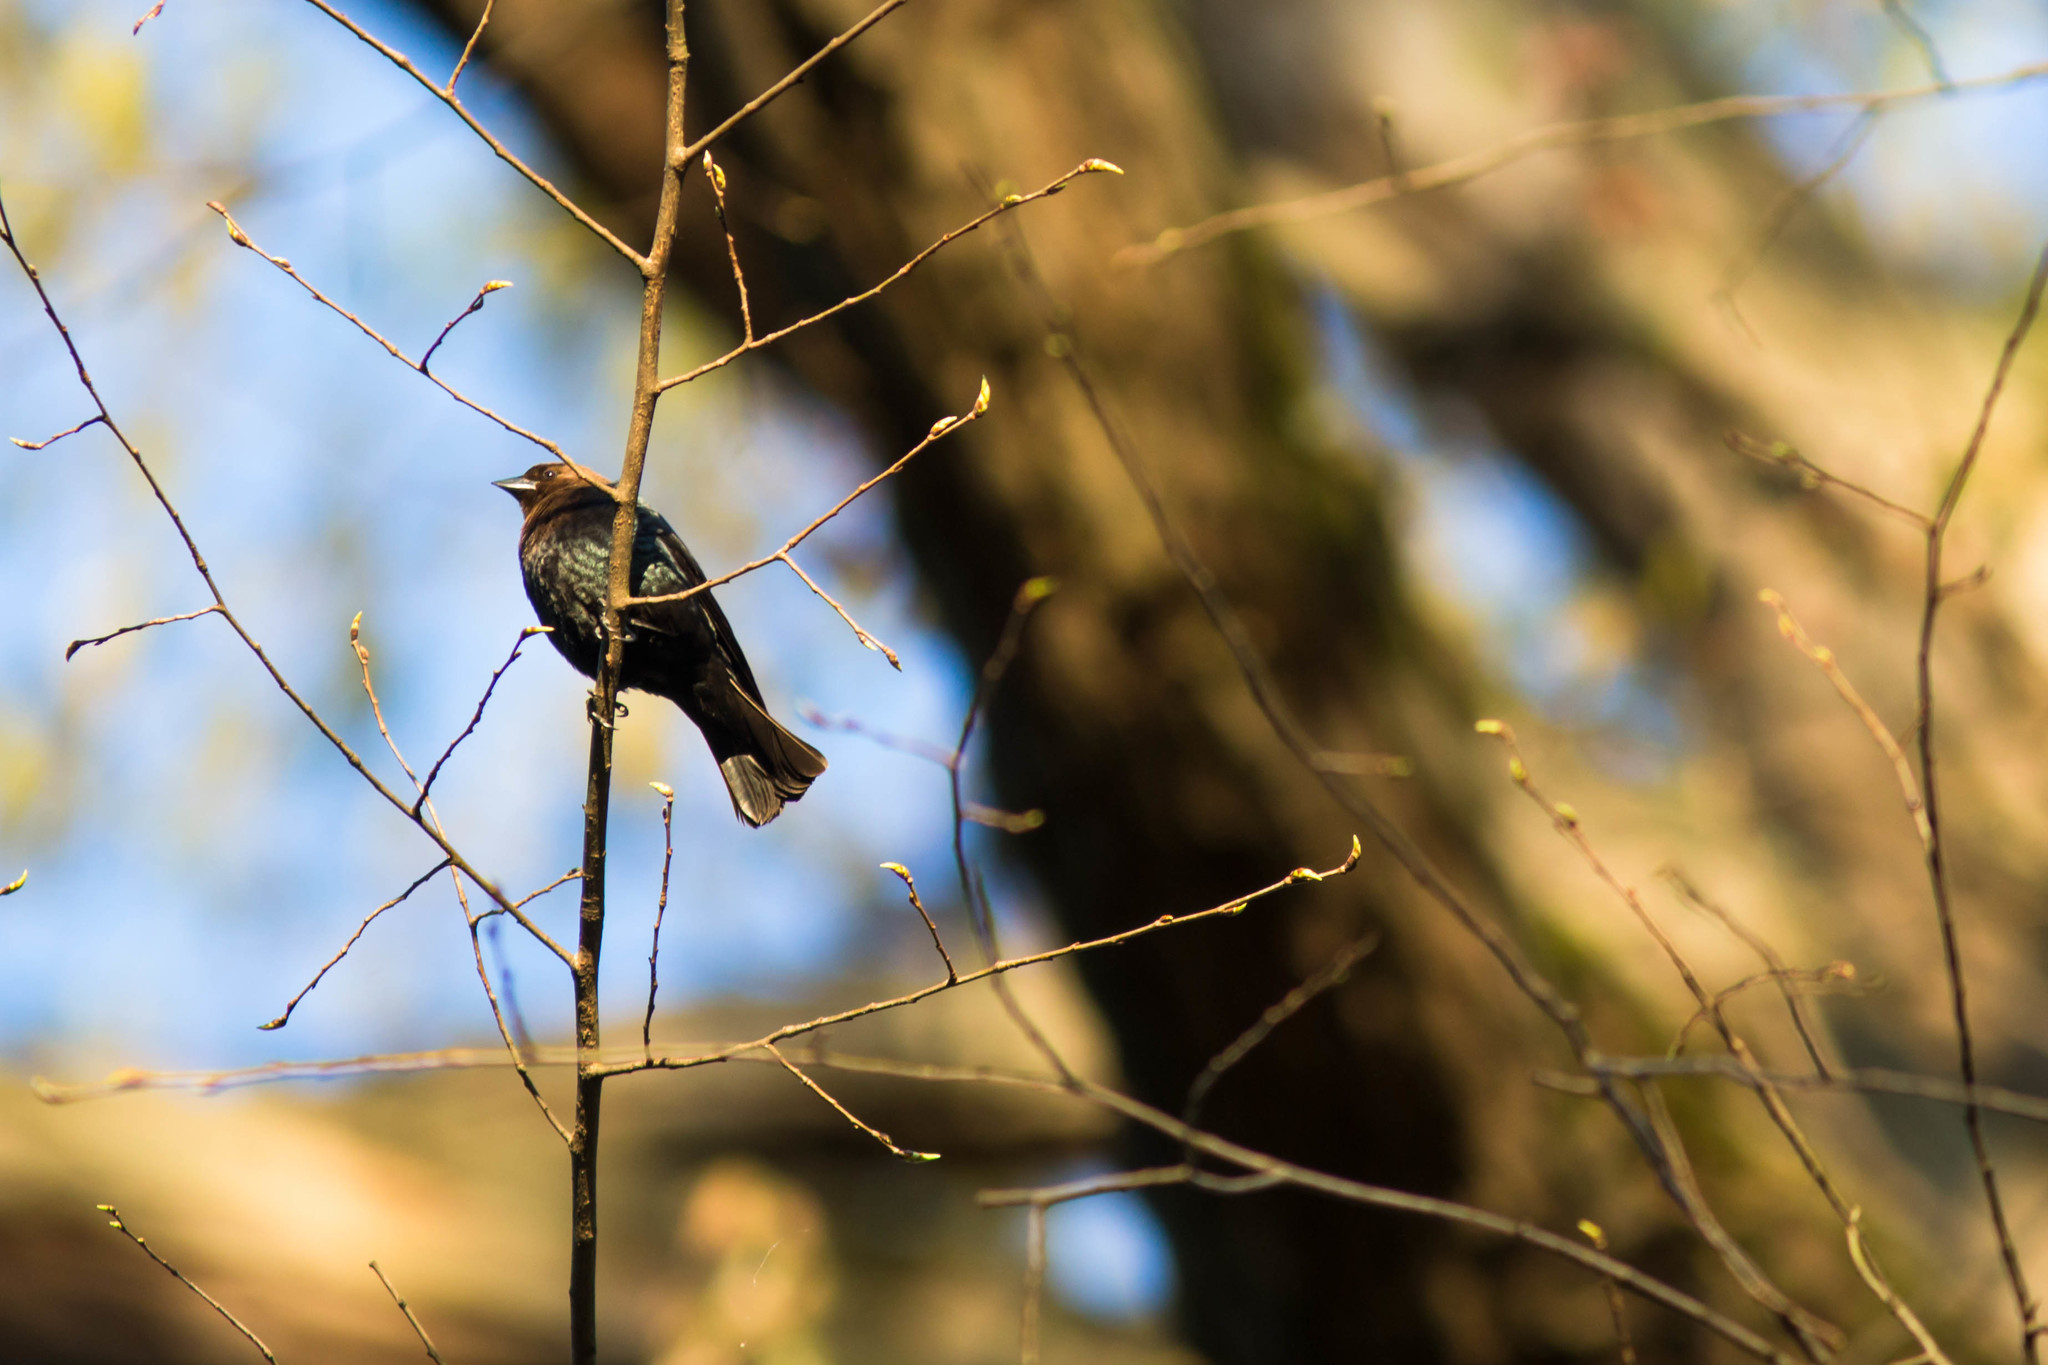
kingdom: Animalia
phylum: Chordata
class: Aves
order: Passeriformes
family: Icteridae
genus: Molothrus
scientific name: Molothrus ater
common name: Brown-headed cowbird
